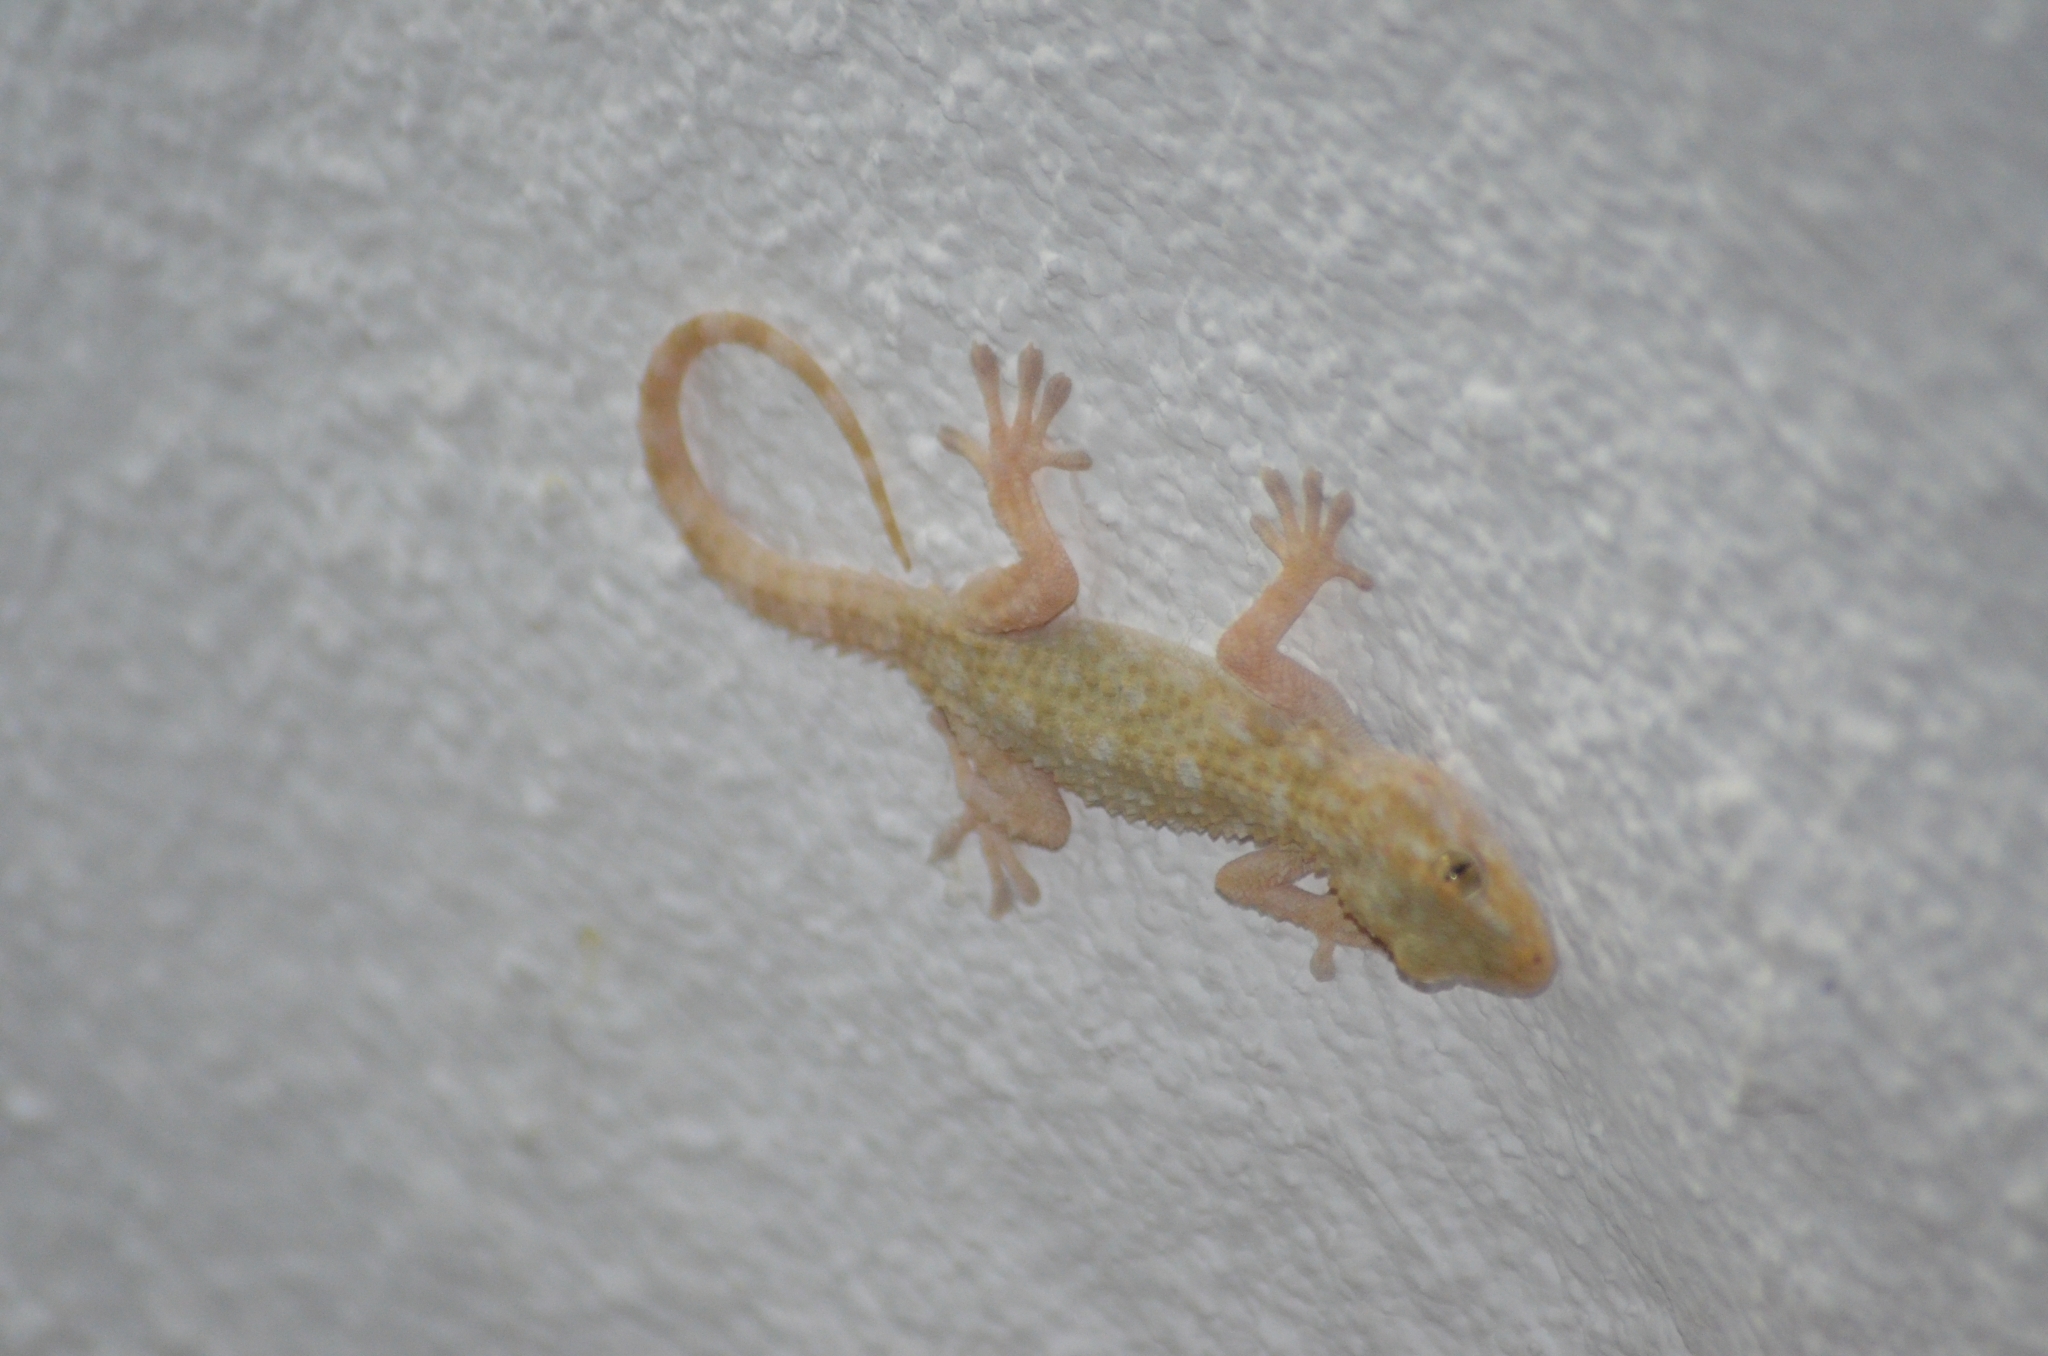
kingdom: Animalia
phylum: Chordata
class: Squamata
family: Phyllodactylidae
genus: Tarentola
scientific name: Tarentola mauritanica
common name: Moorish gecko
